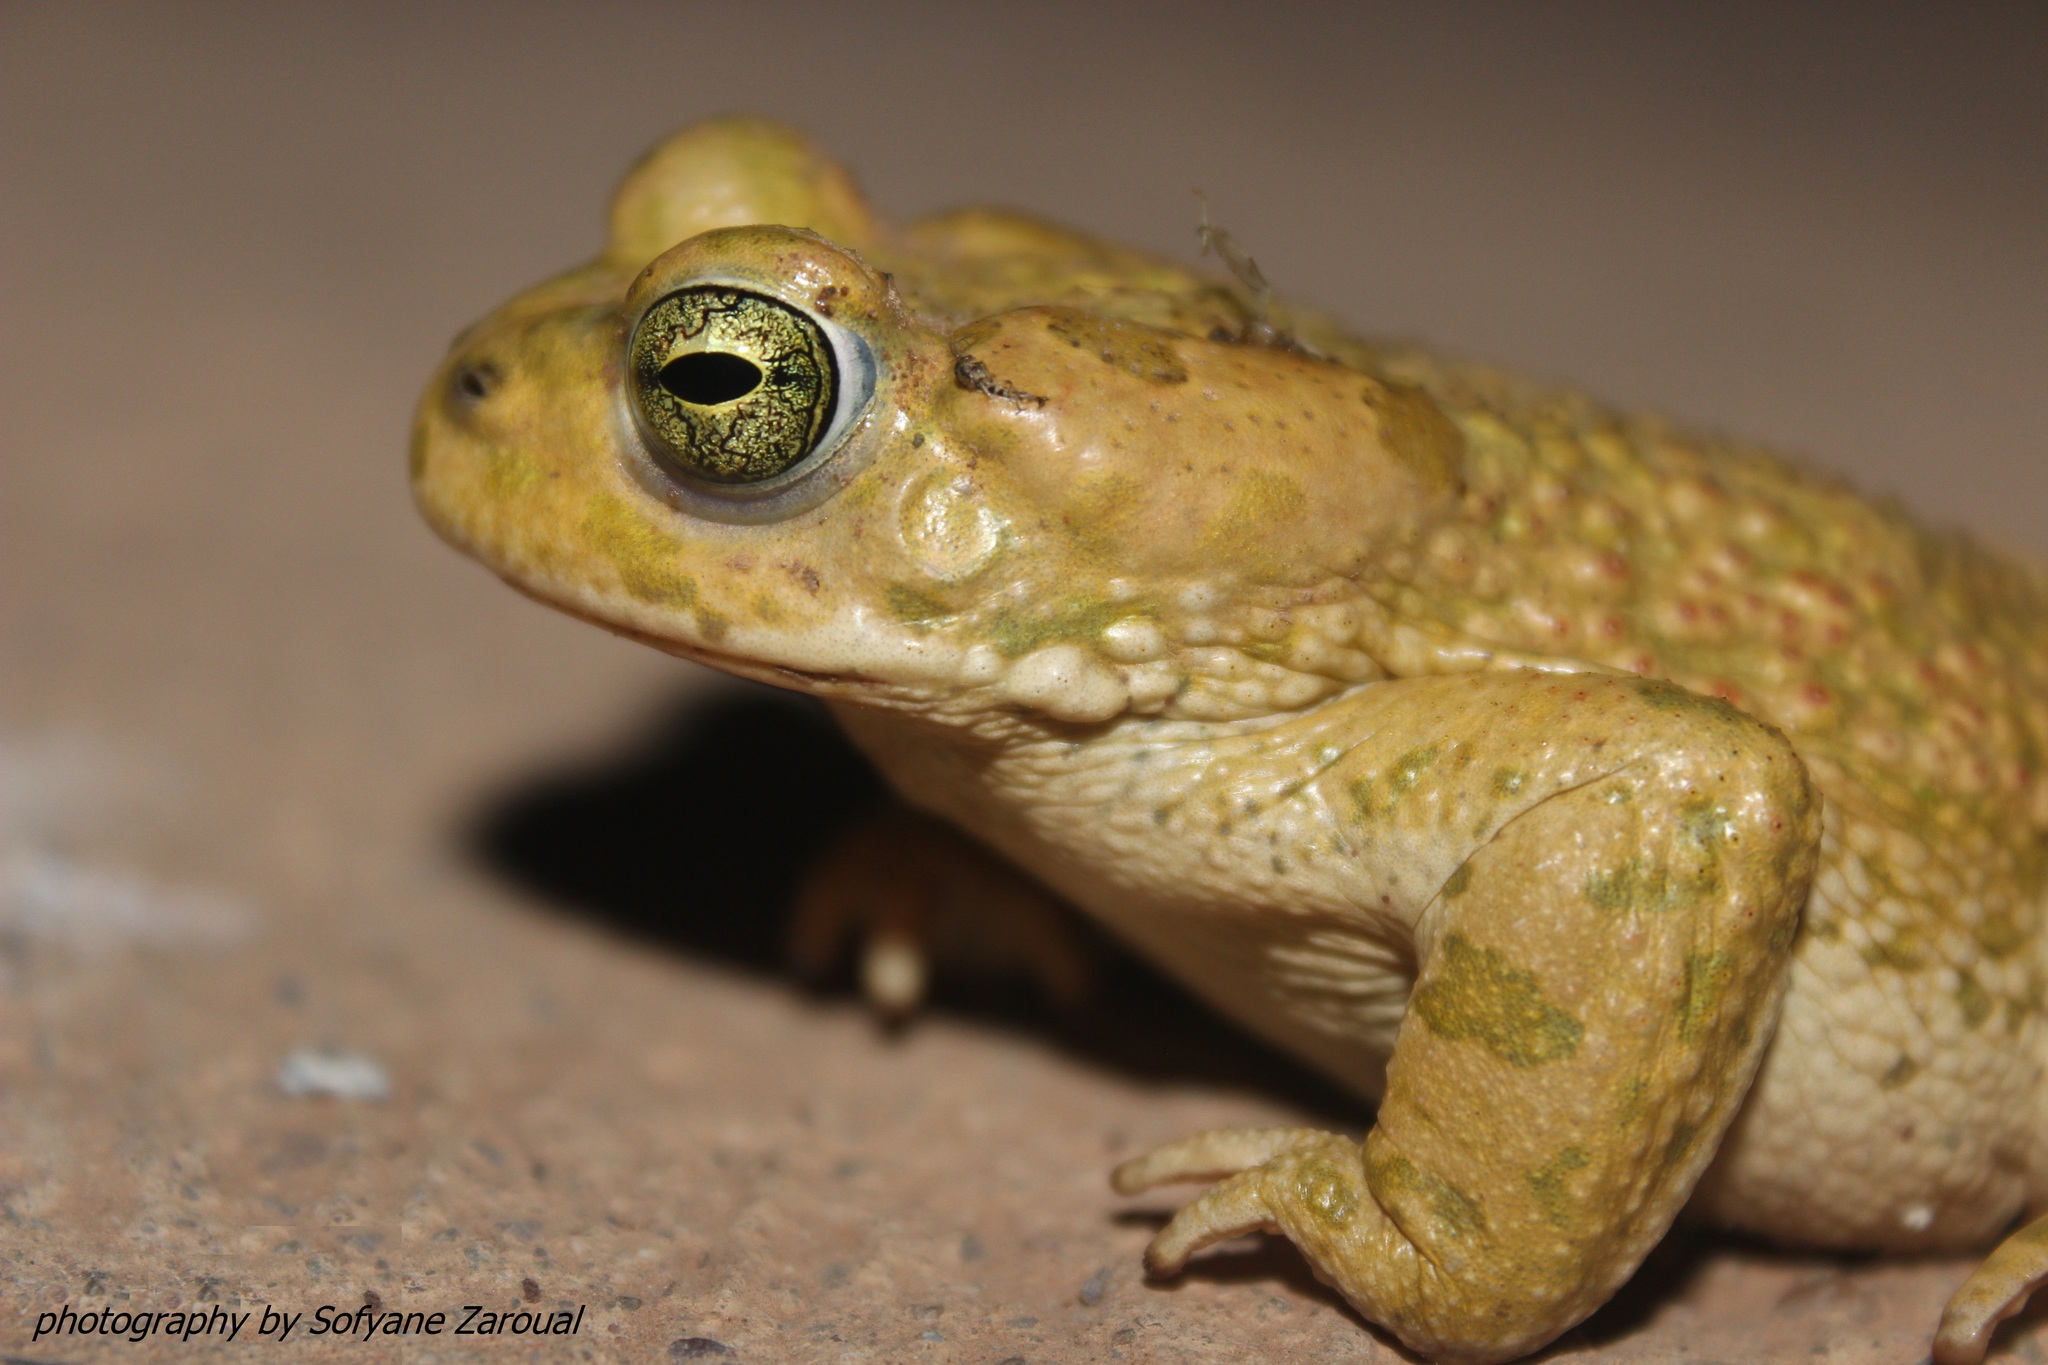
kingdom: Animalia
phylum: Chordata
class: Amphibia
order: Anura
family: Bufonidae
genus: Bufotes
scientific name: Bufotes boulengeri
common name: African green toad
